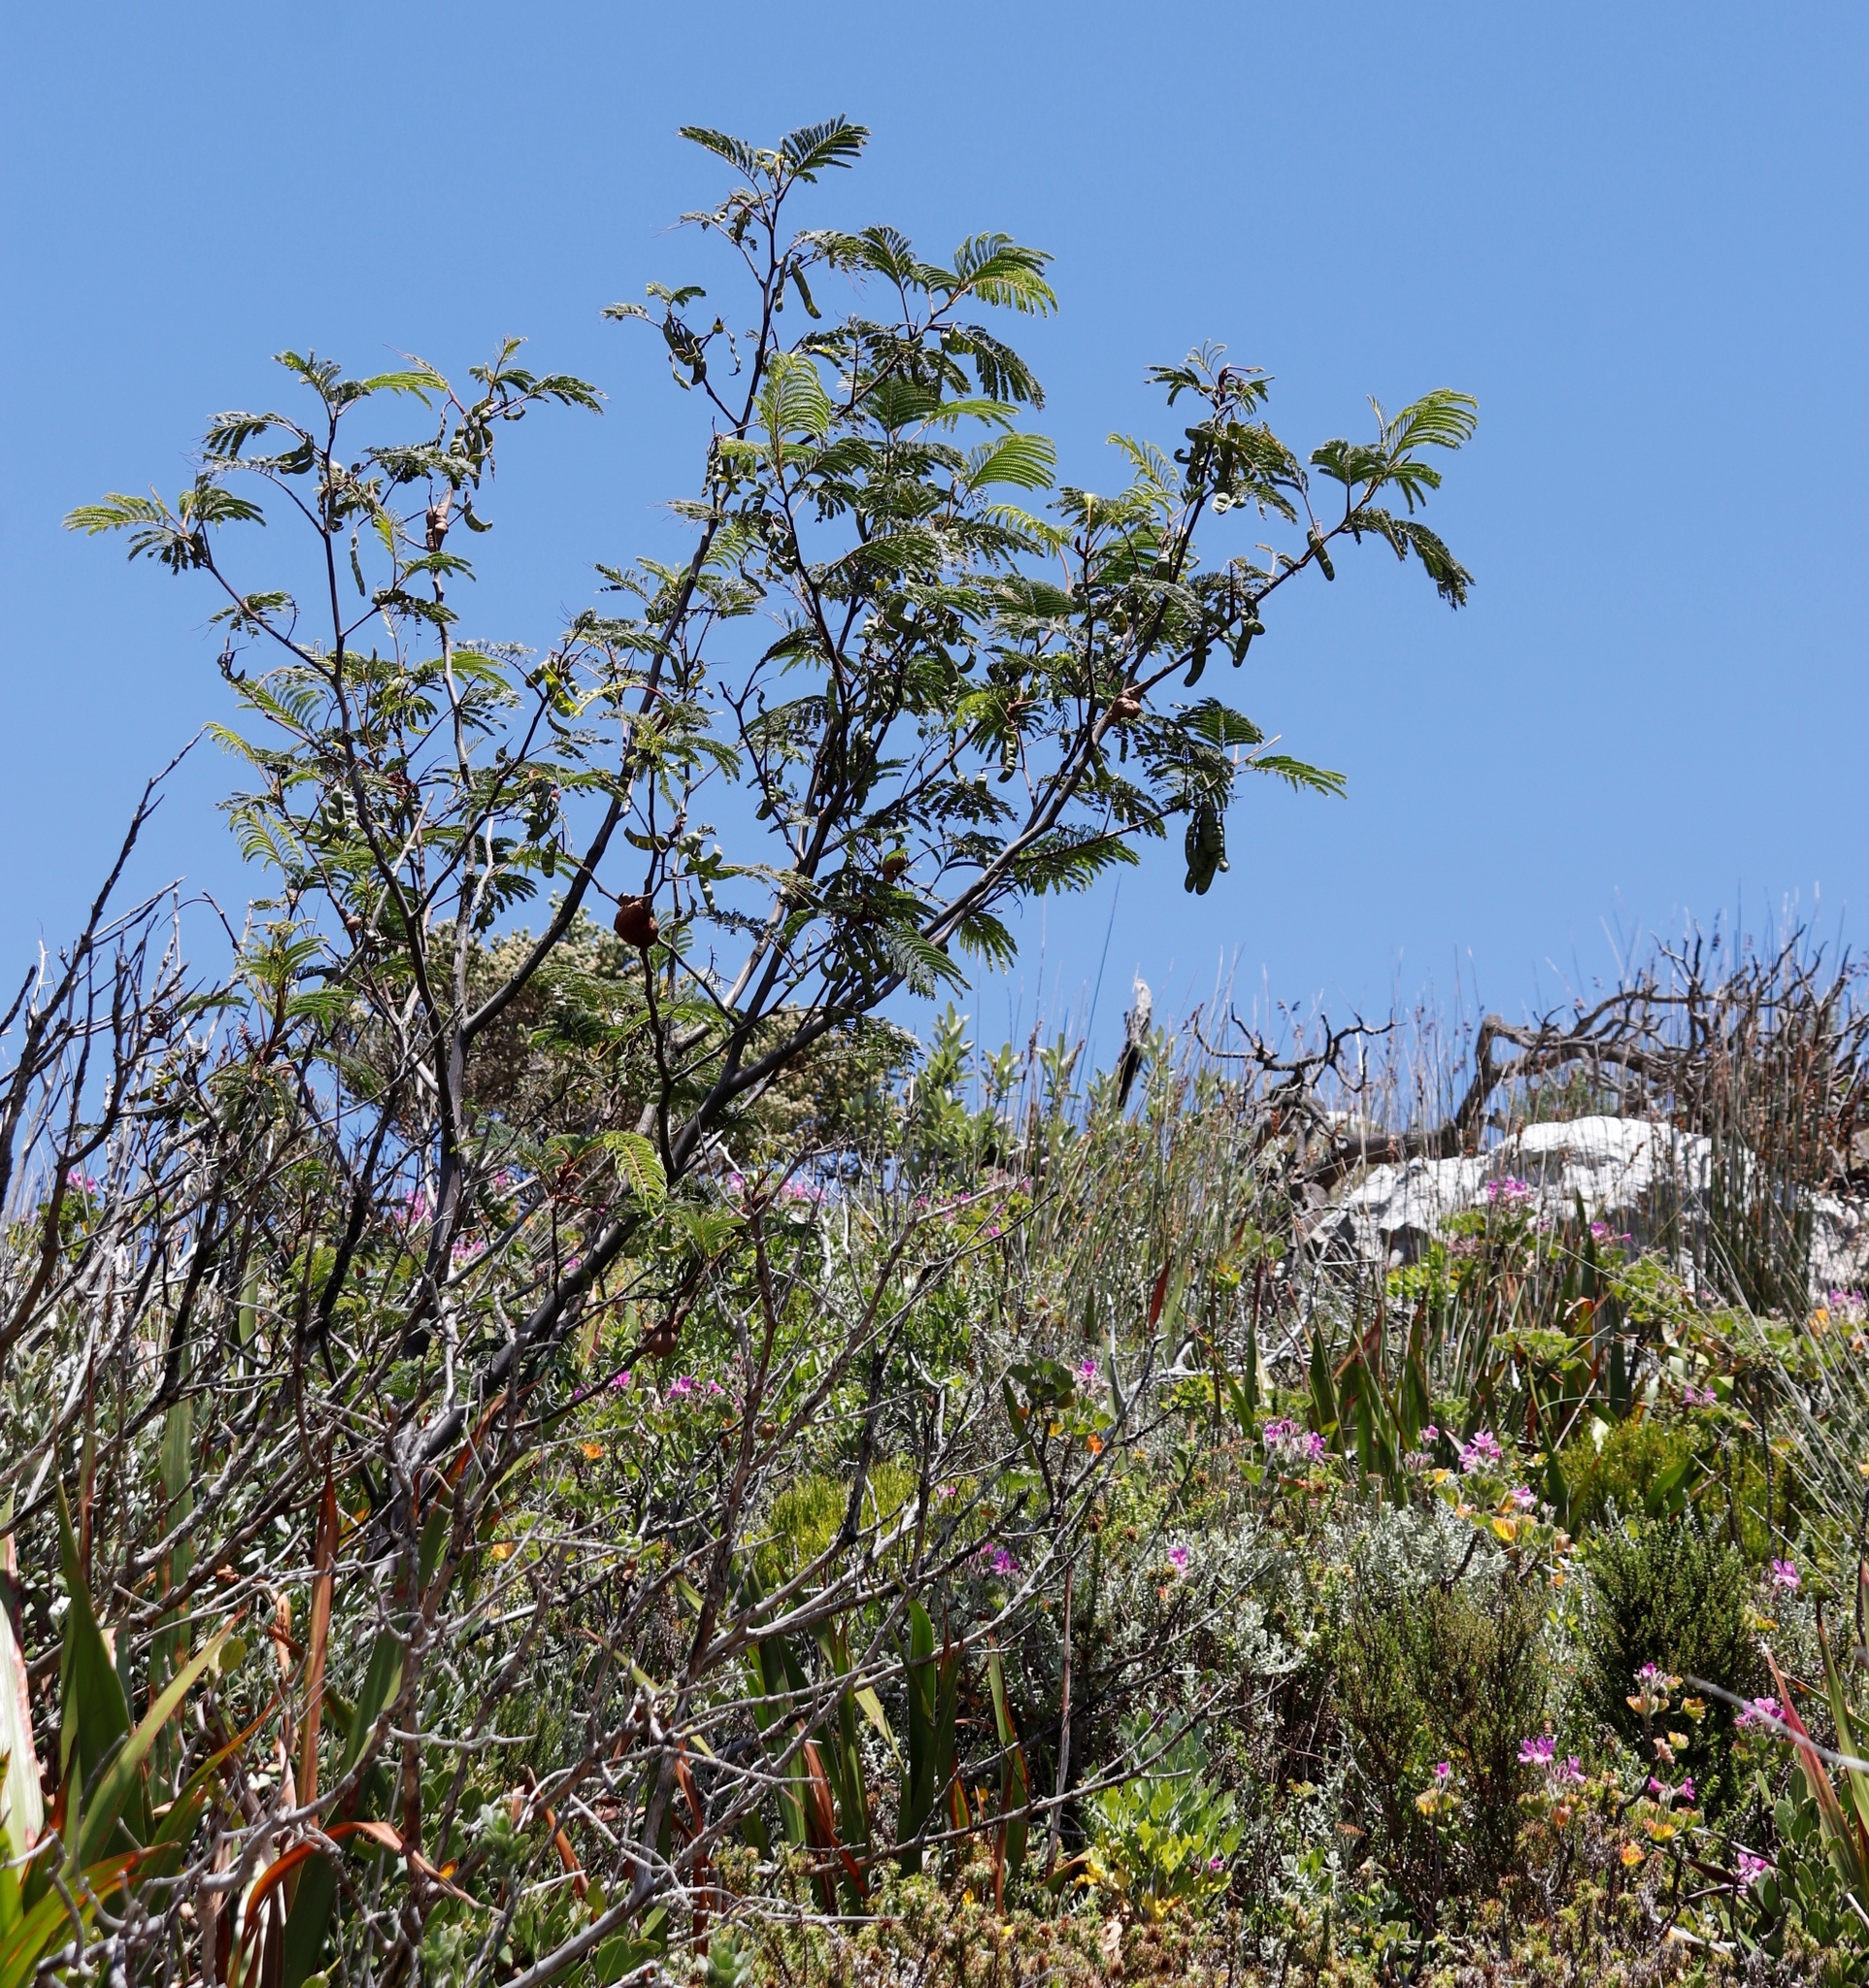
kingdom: Plantae
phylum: Tracheophyta
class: Magnoliopsida
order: Fabales
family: Fabaceae
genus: Paraserianthes
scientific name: Paraserianthes lophantha
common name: Plume albizia
